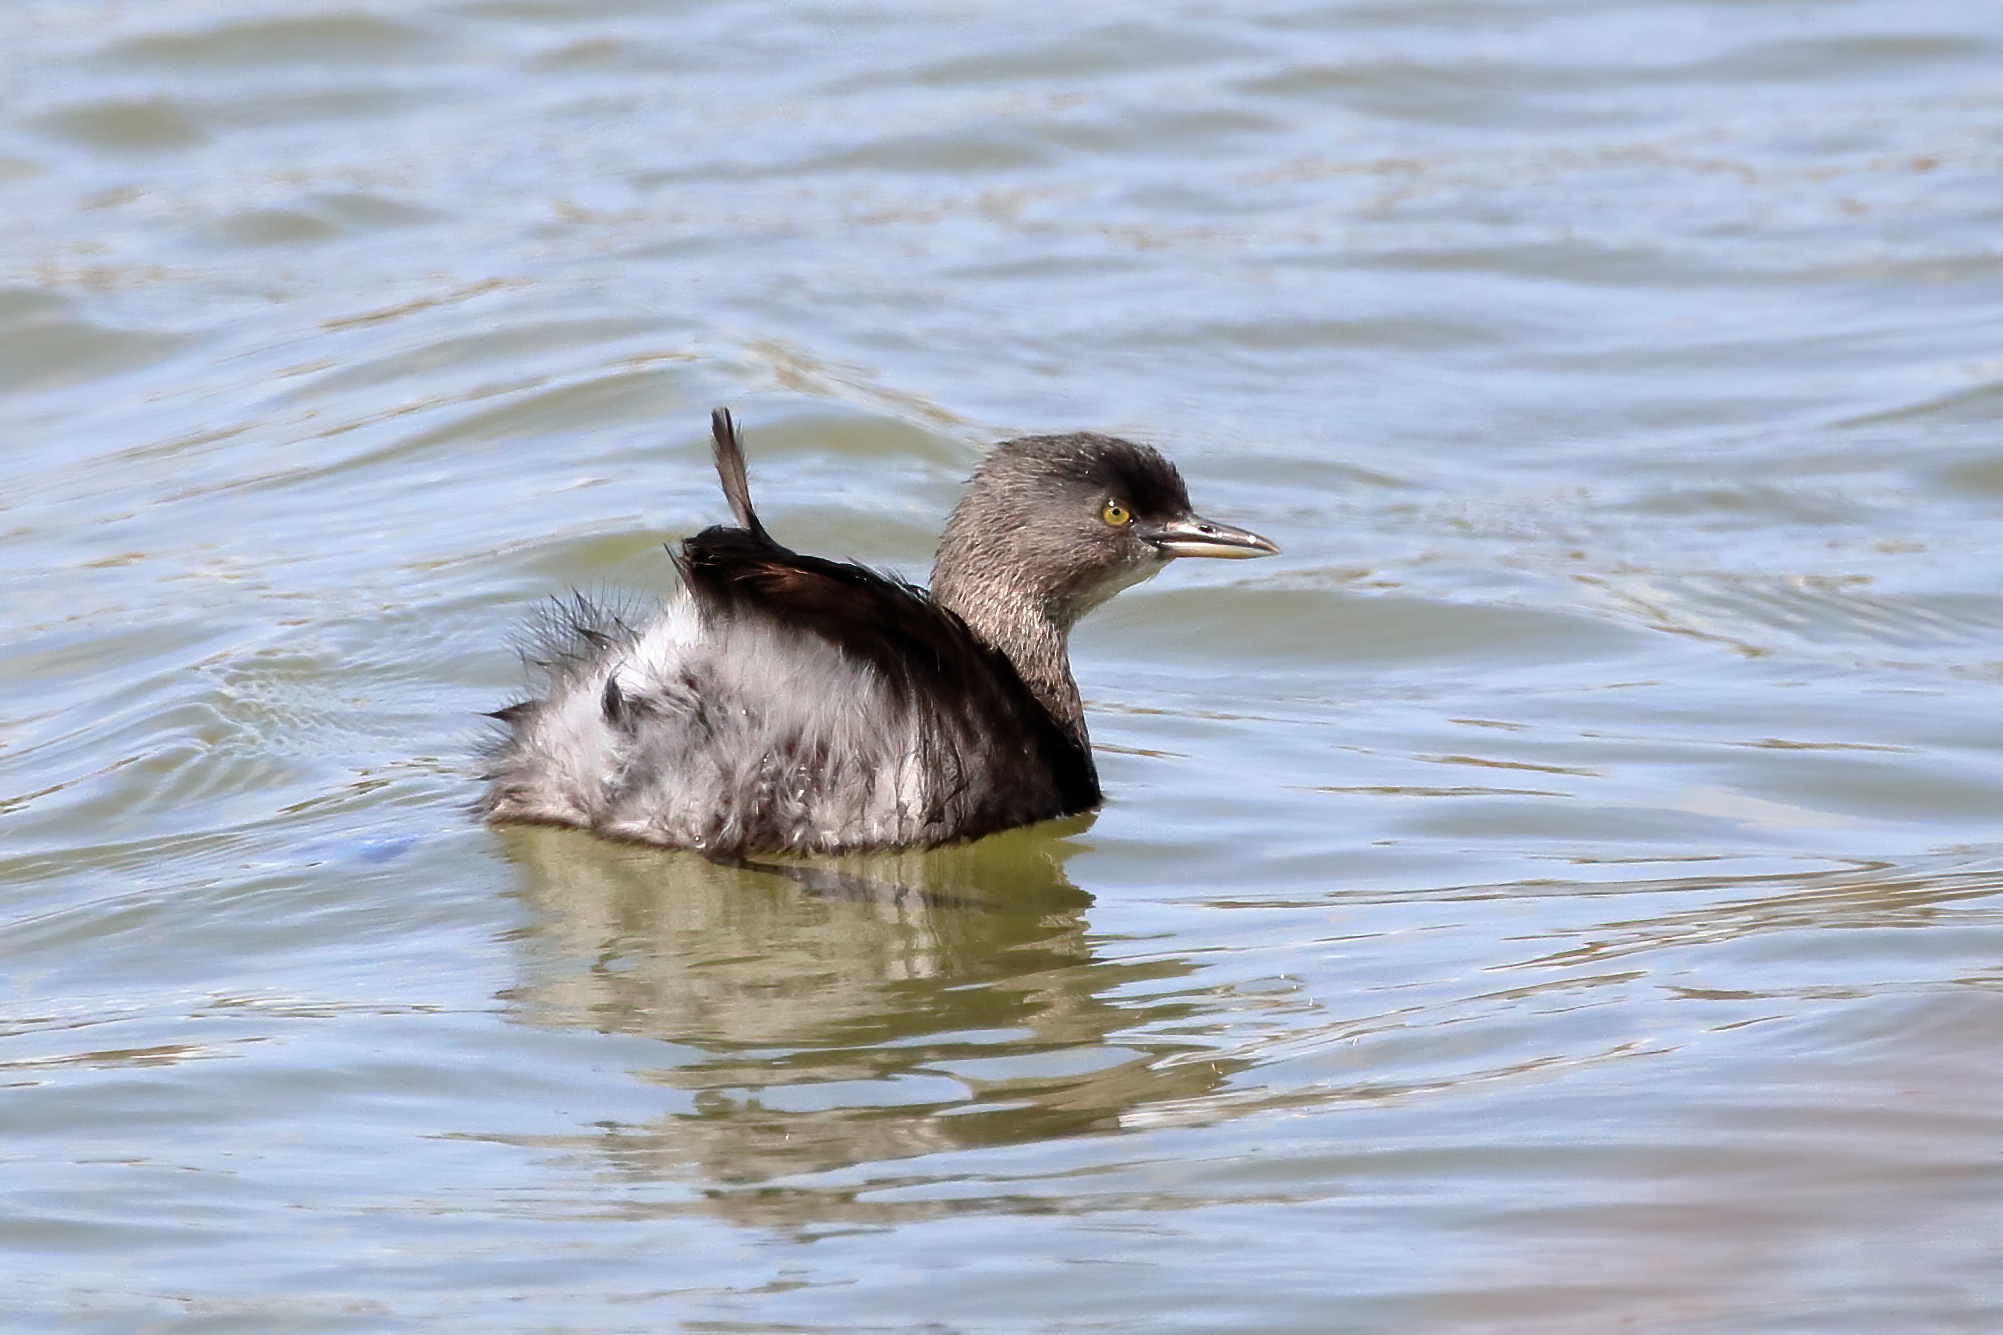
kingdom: Animalia
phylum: Chordata
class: Aves
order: Podicipediformes
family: Podicipedidae
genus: Tachybaptus
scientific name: Tachybaptus dominicus
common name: Least grebe
